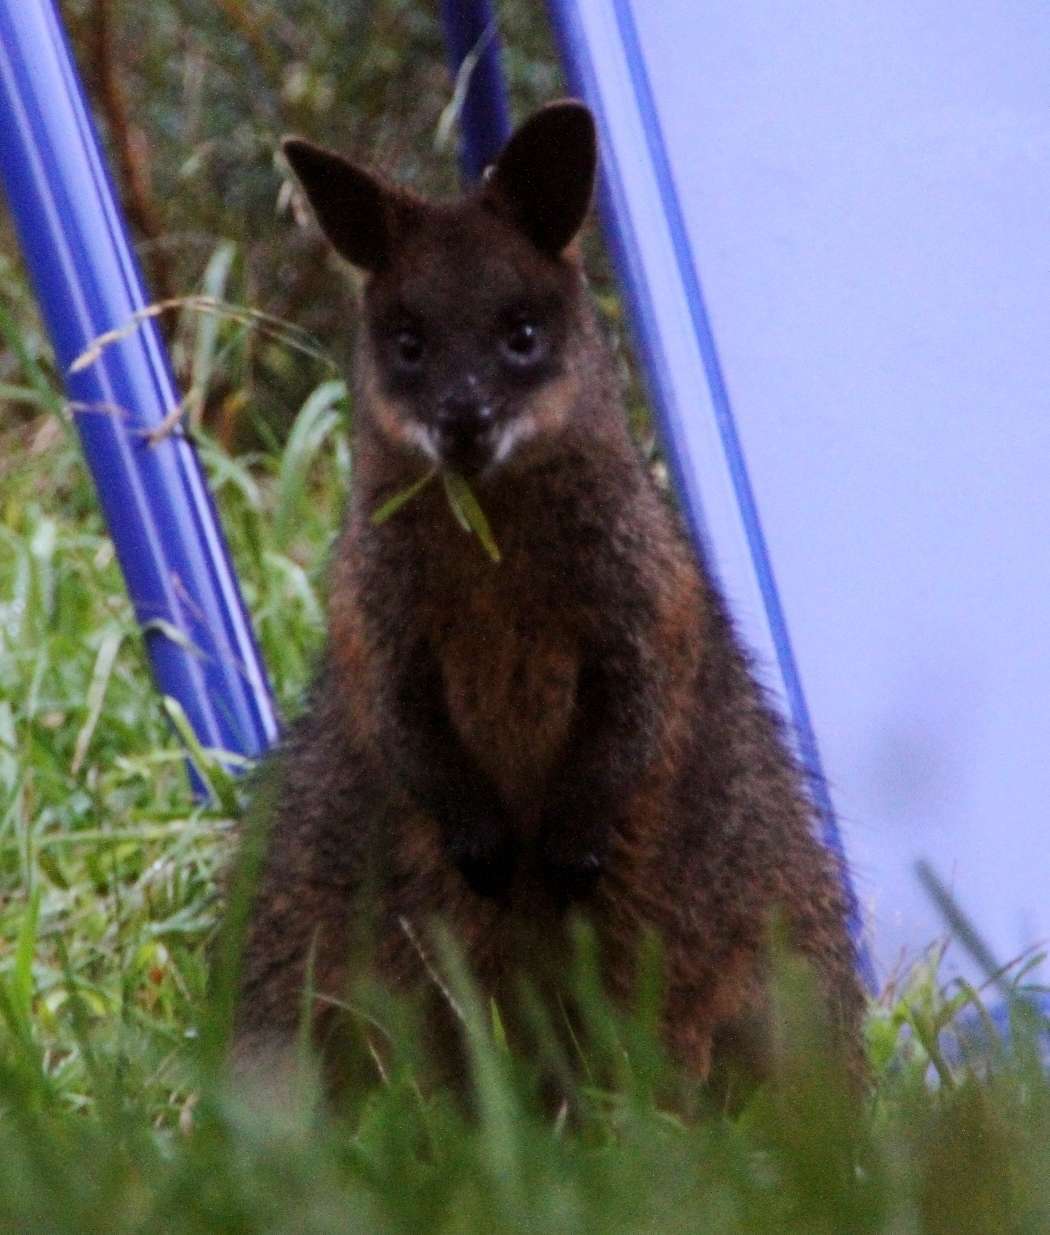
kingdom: Animalia
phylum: Chordata
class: Mammalia
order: Diprotodontia
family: Macropodidae
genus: Wallabia
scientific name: Wallabia bicolor
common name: Swamp wallaby
